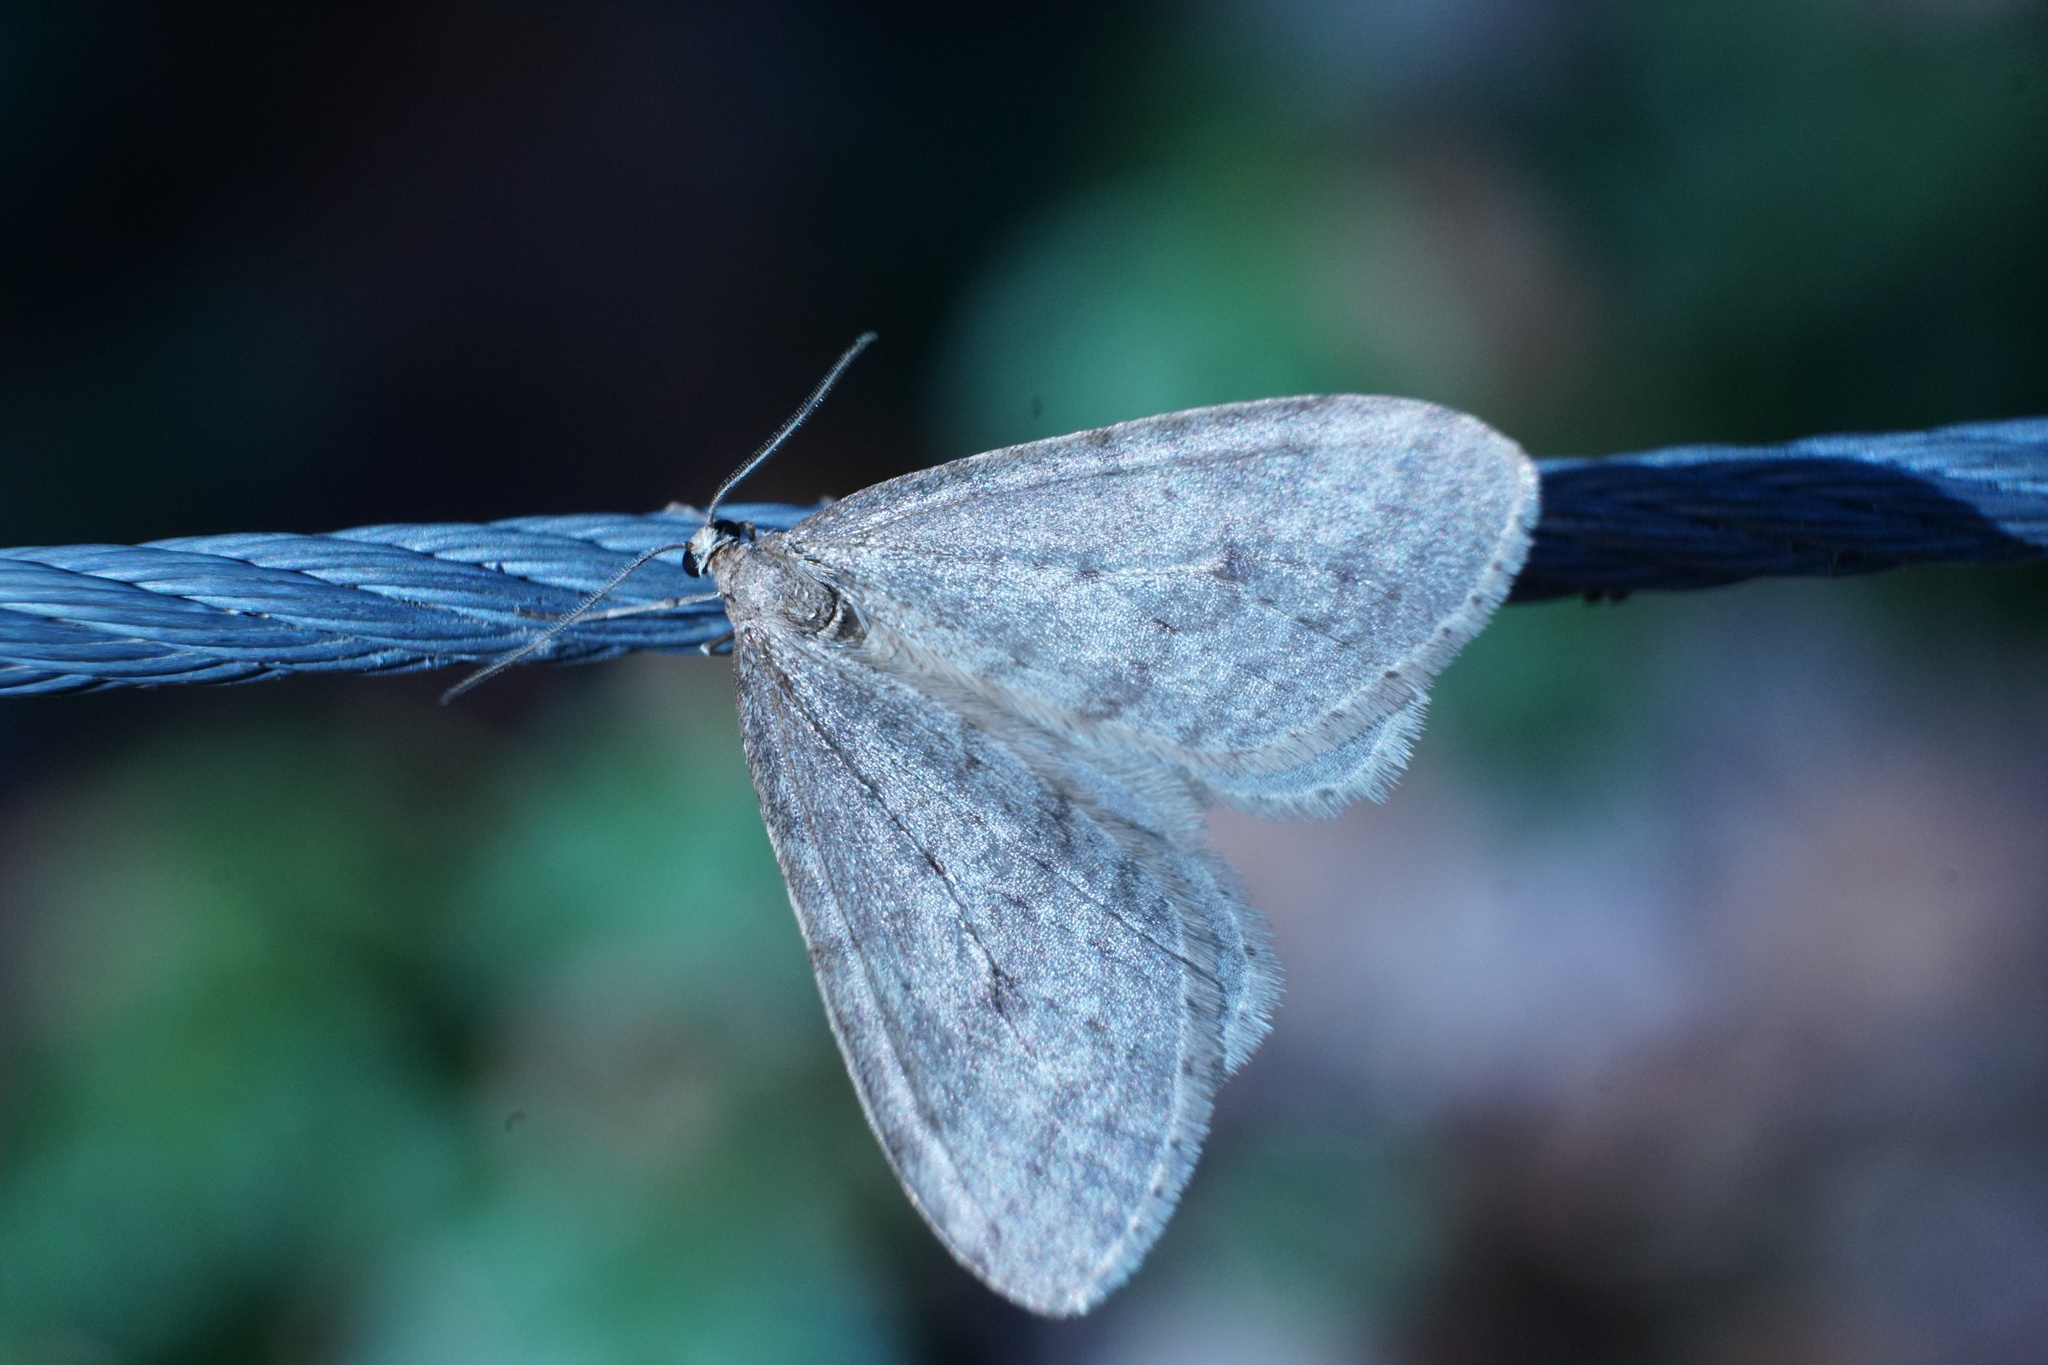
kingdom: Animalia
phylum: Arthropoda
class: Insecta
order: Lepidoptera
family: Geometridae
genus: Operophtera
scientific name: Operophtera bruceata
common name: Bruce spanworm
